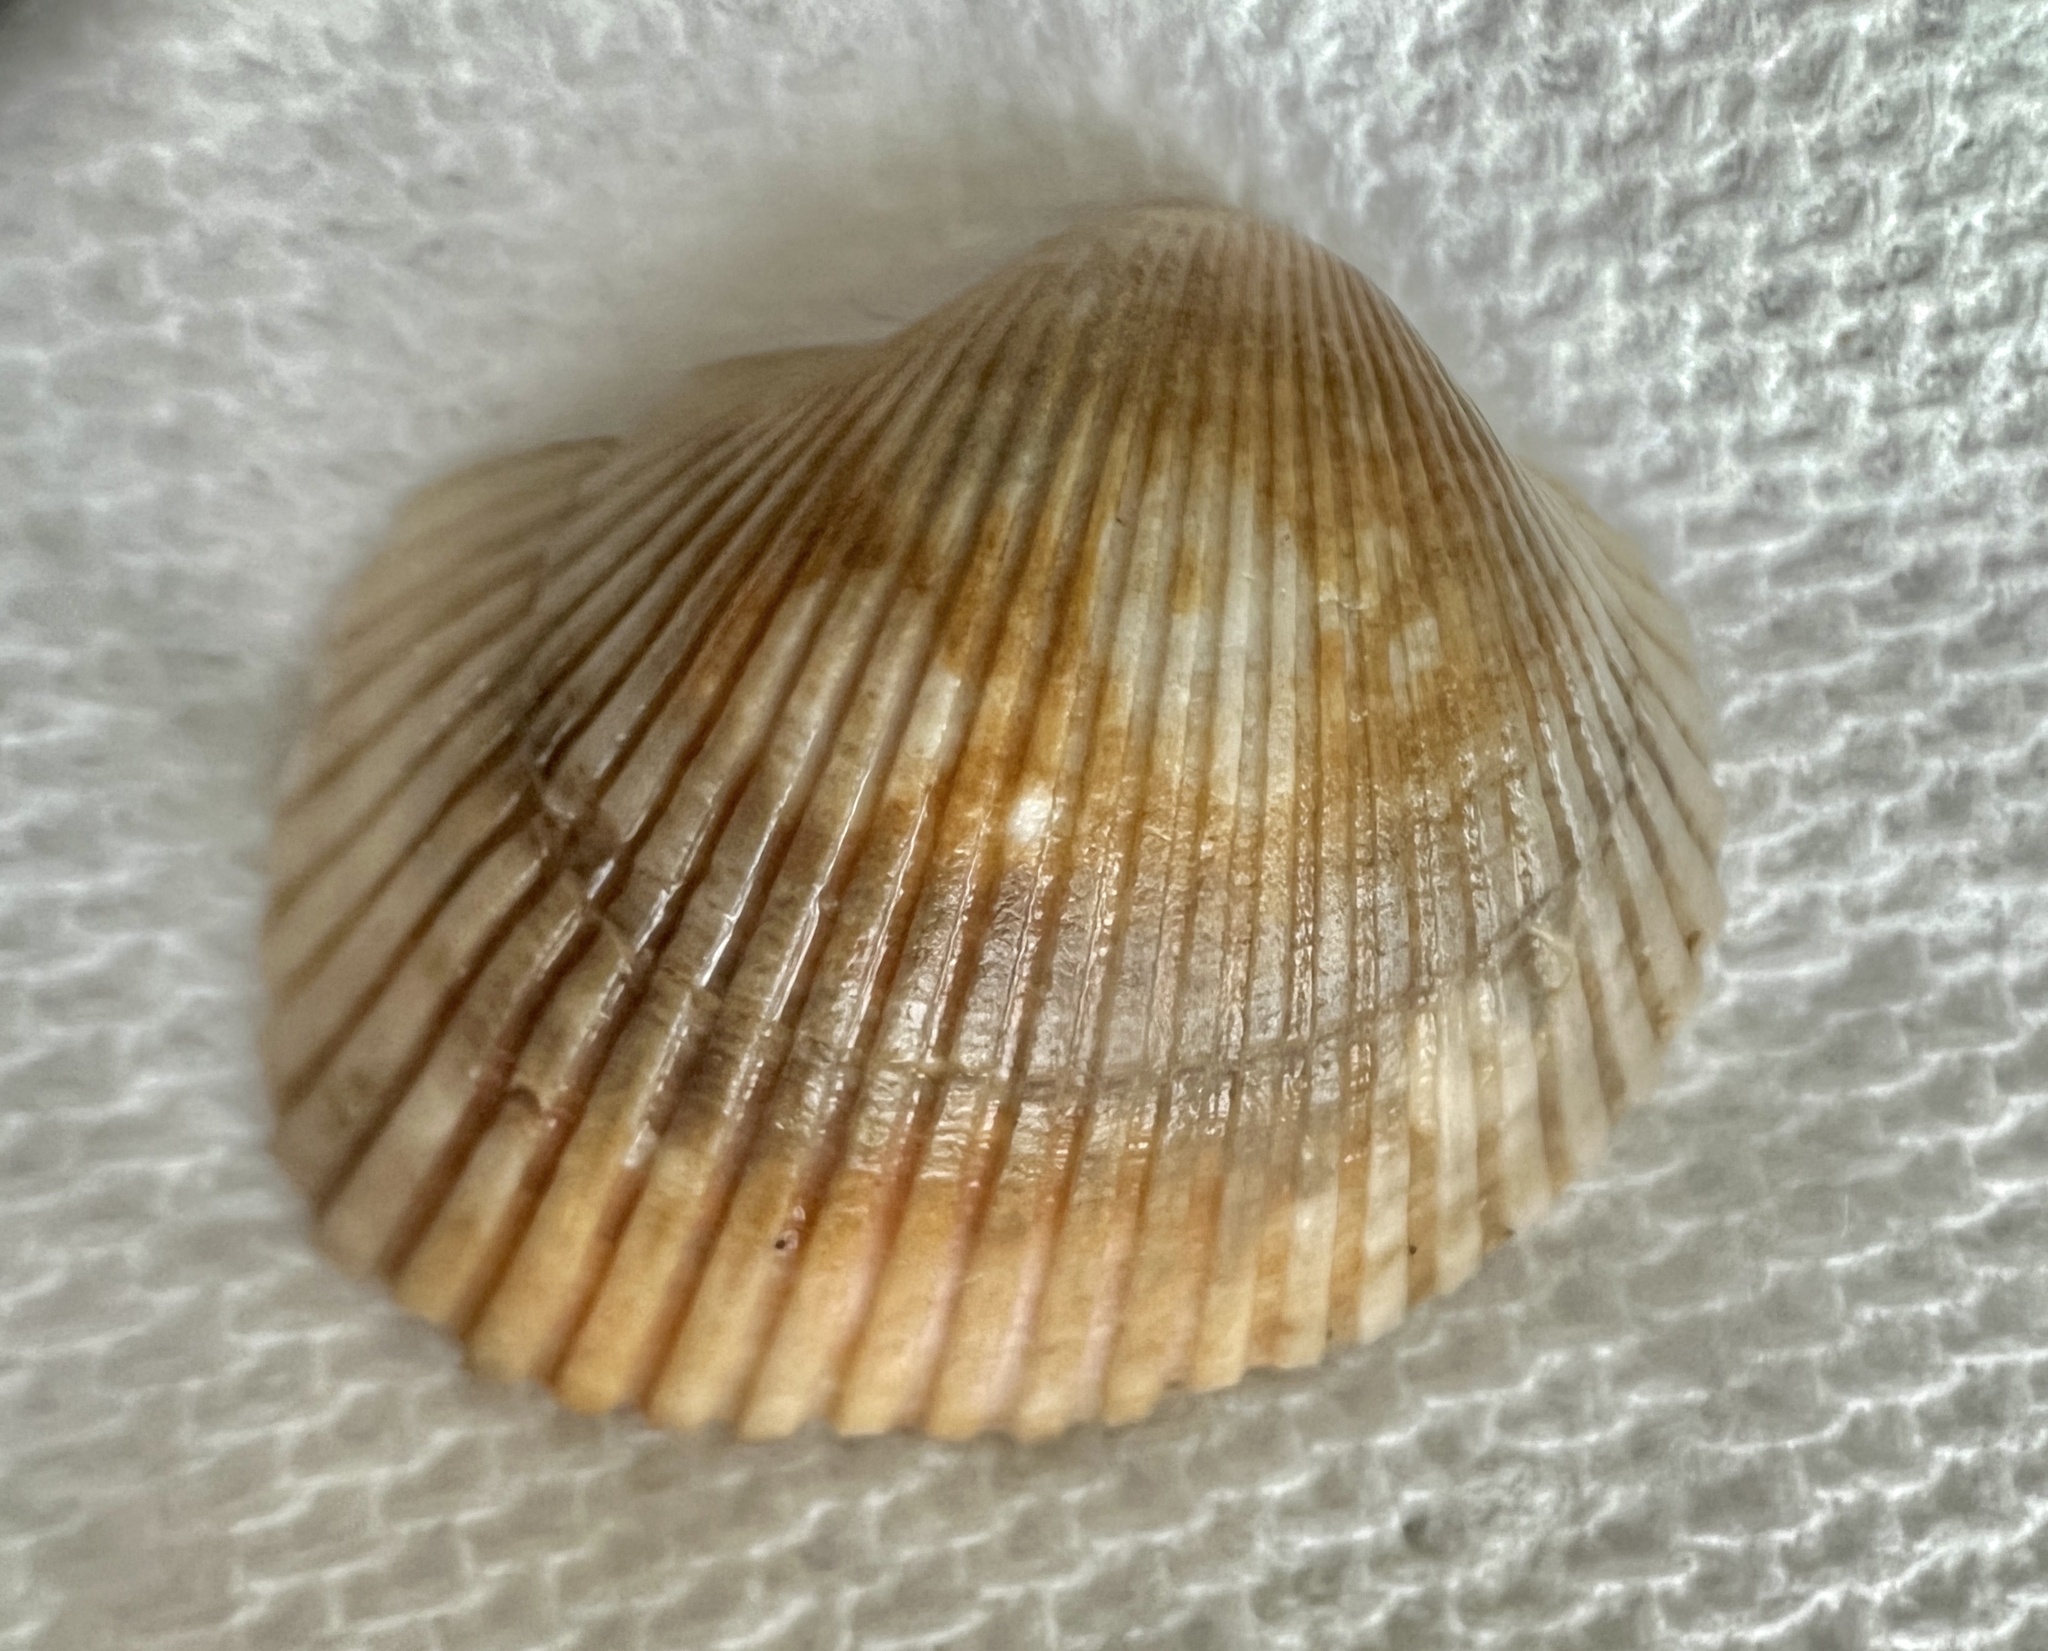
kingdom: Animalia
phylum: Mollusca
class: Bivalvia
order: Arcida
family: Arcidae
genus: Lunarca
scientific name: Lunarca ovalis
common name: Blood ark
